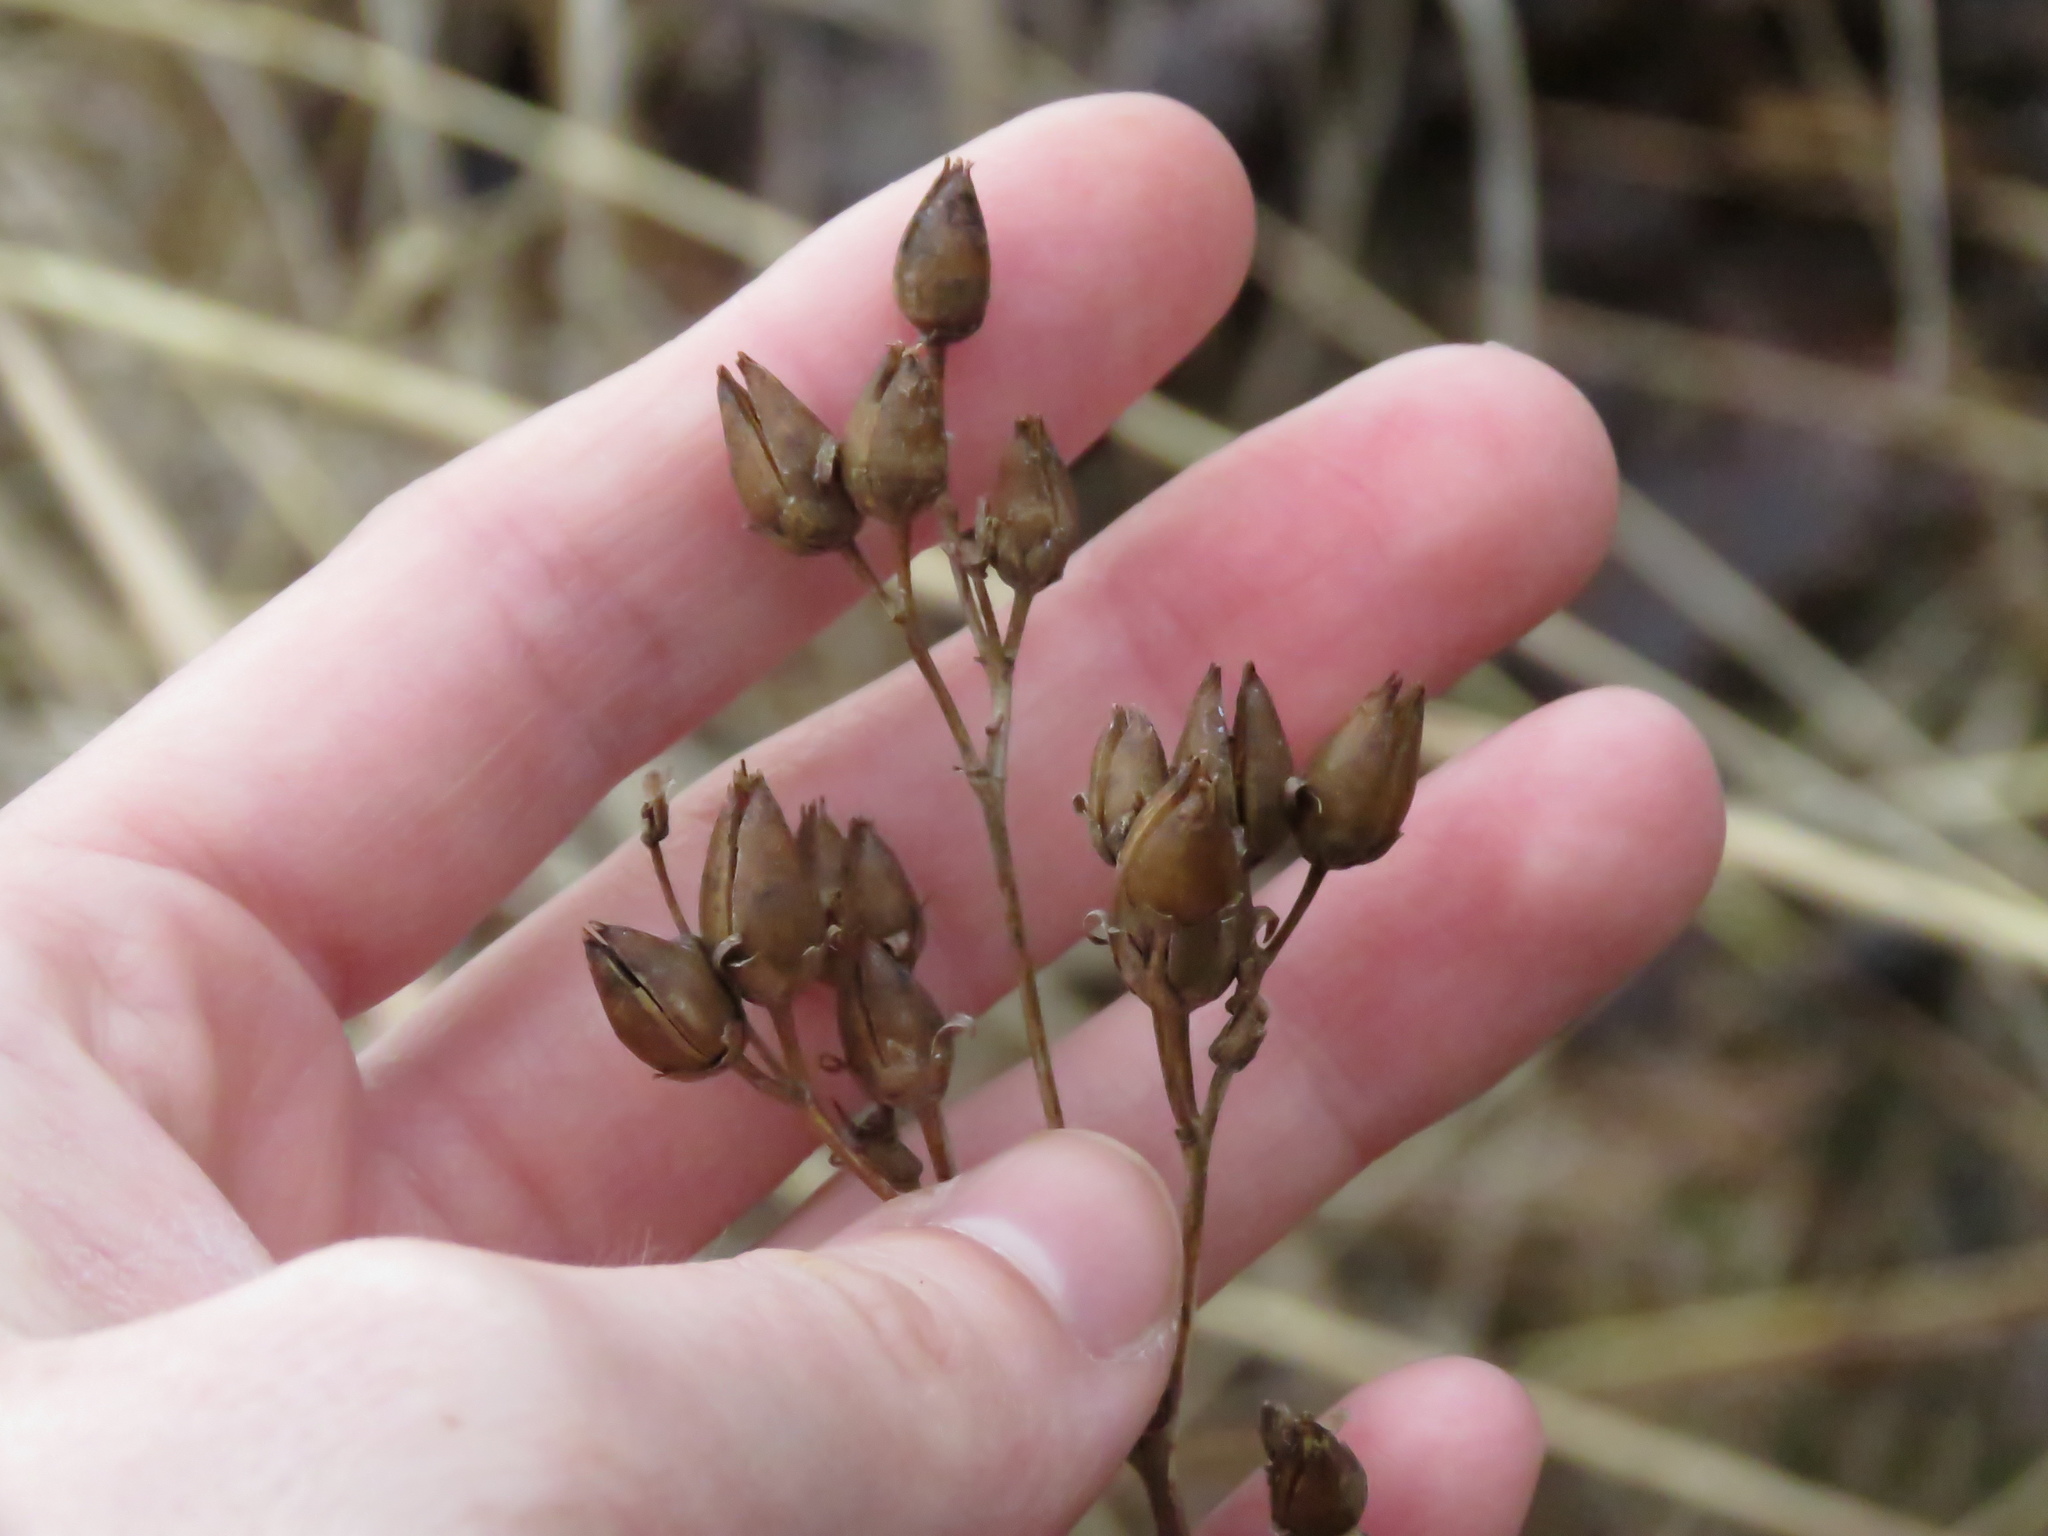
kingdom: Plantae
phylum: Tracheophyta
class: Magnoliopsida
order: Lamiales
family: Plantaginaceae
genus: Penstemon
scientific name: Penstemon digitalis
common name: Foxglove beardtongue
